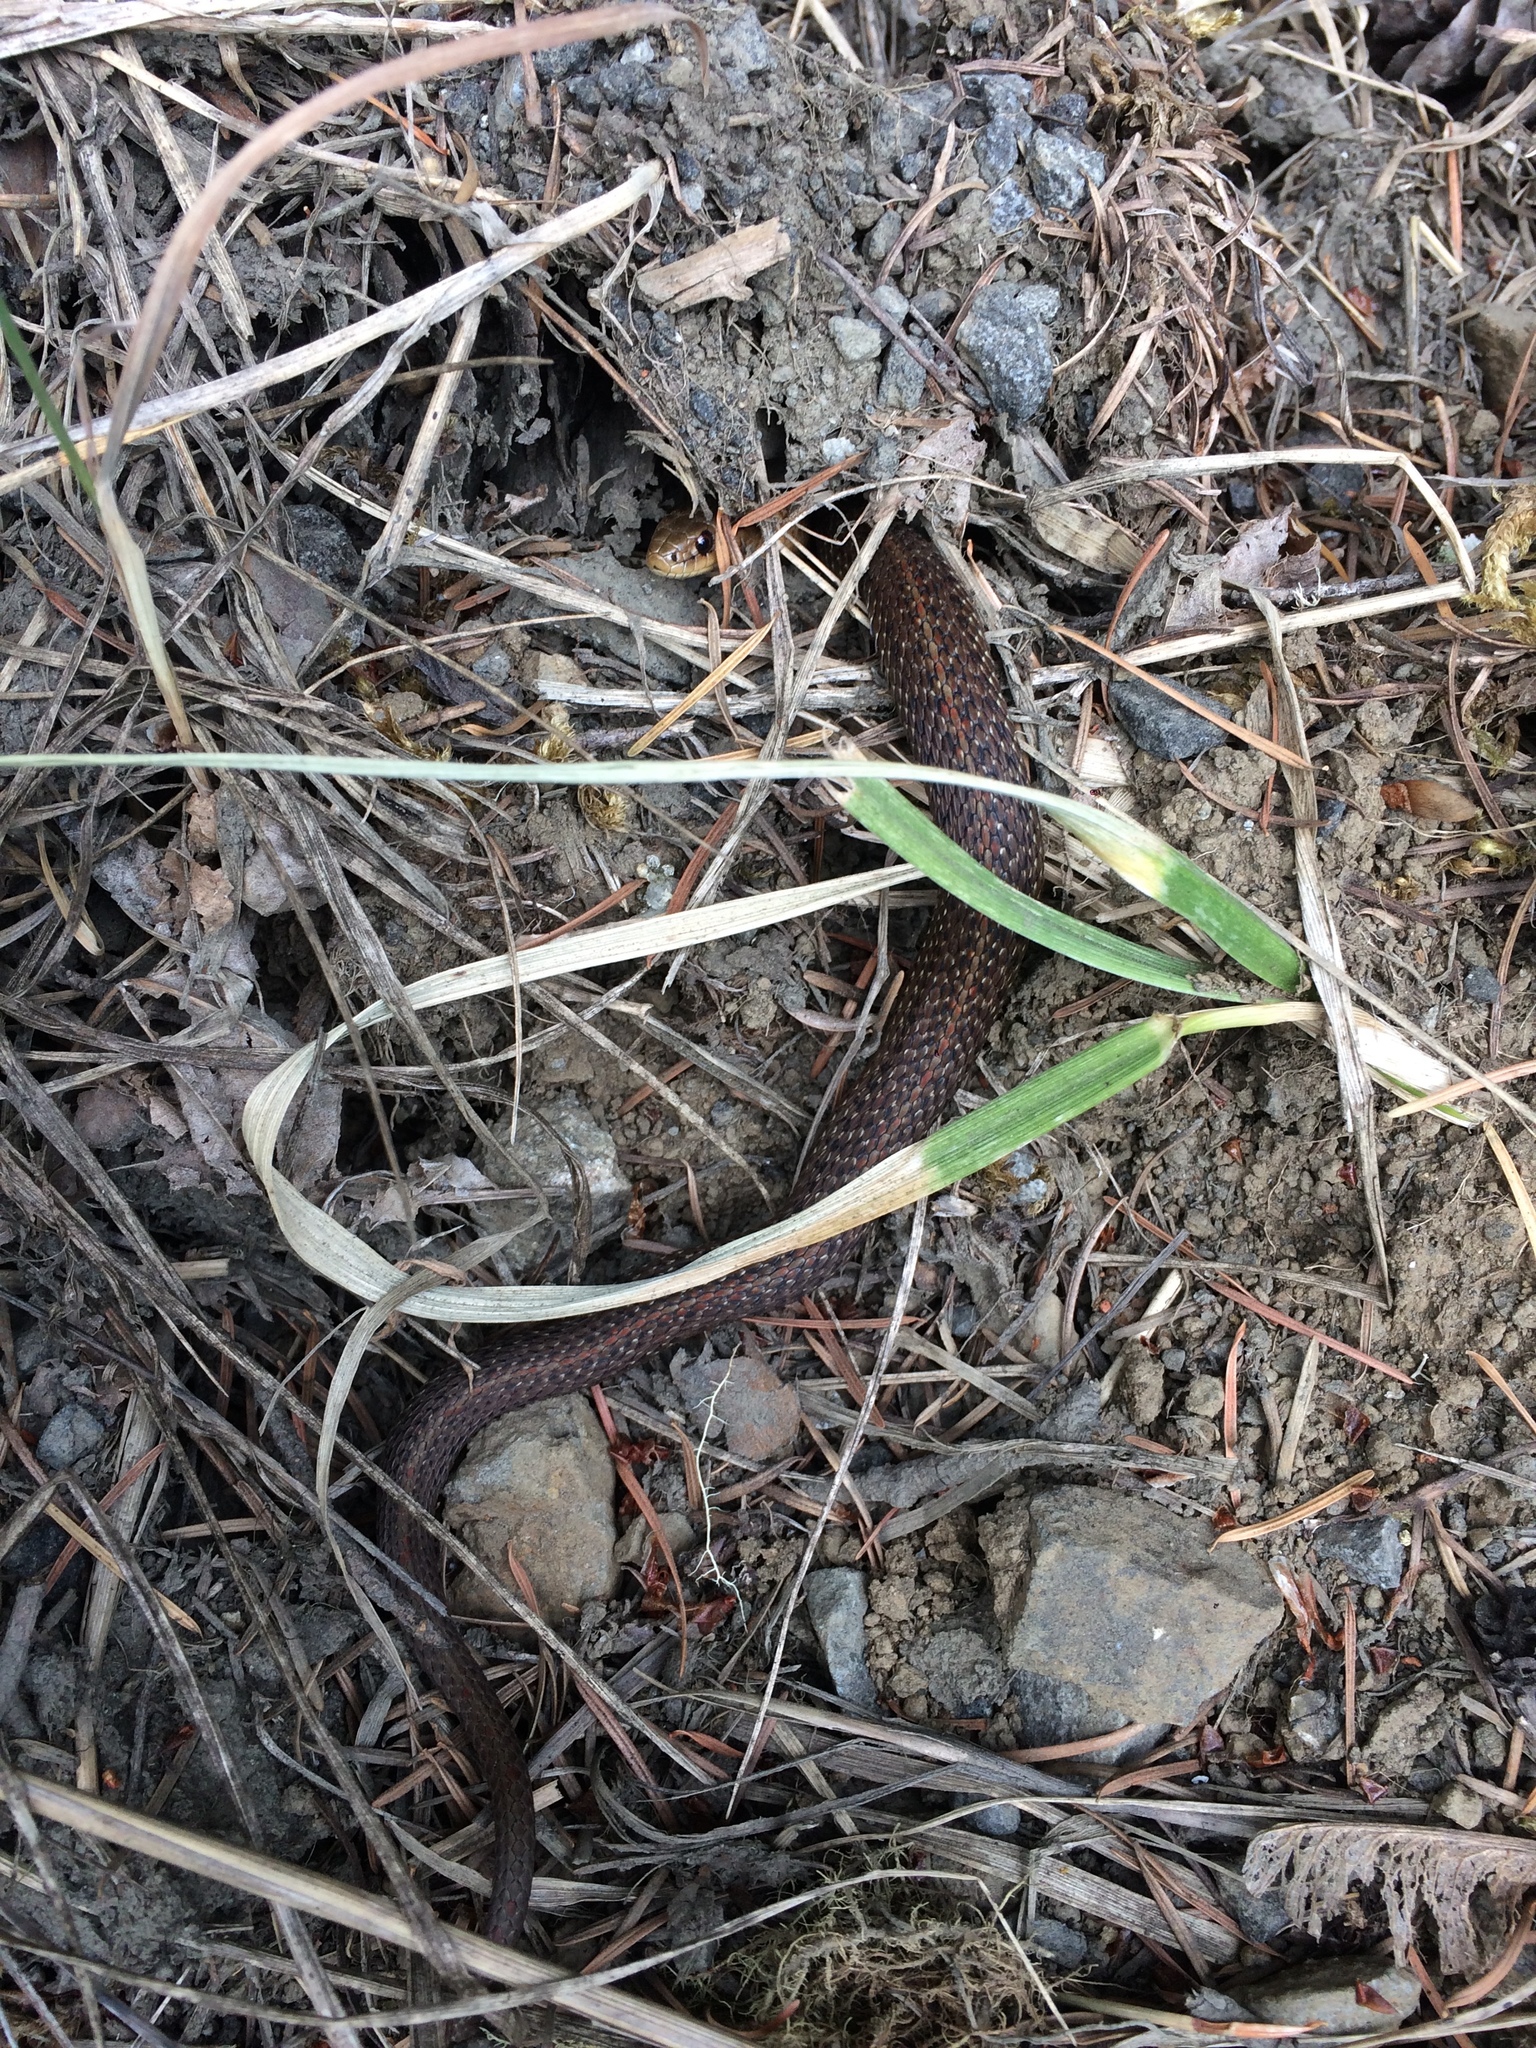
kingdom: Animalia
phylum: Chordata
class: Squamata
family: Colubridae
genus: Thamnophis
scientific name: Thamnophis ordinoides
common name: Northwestern garter snake
